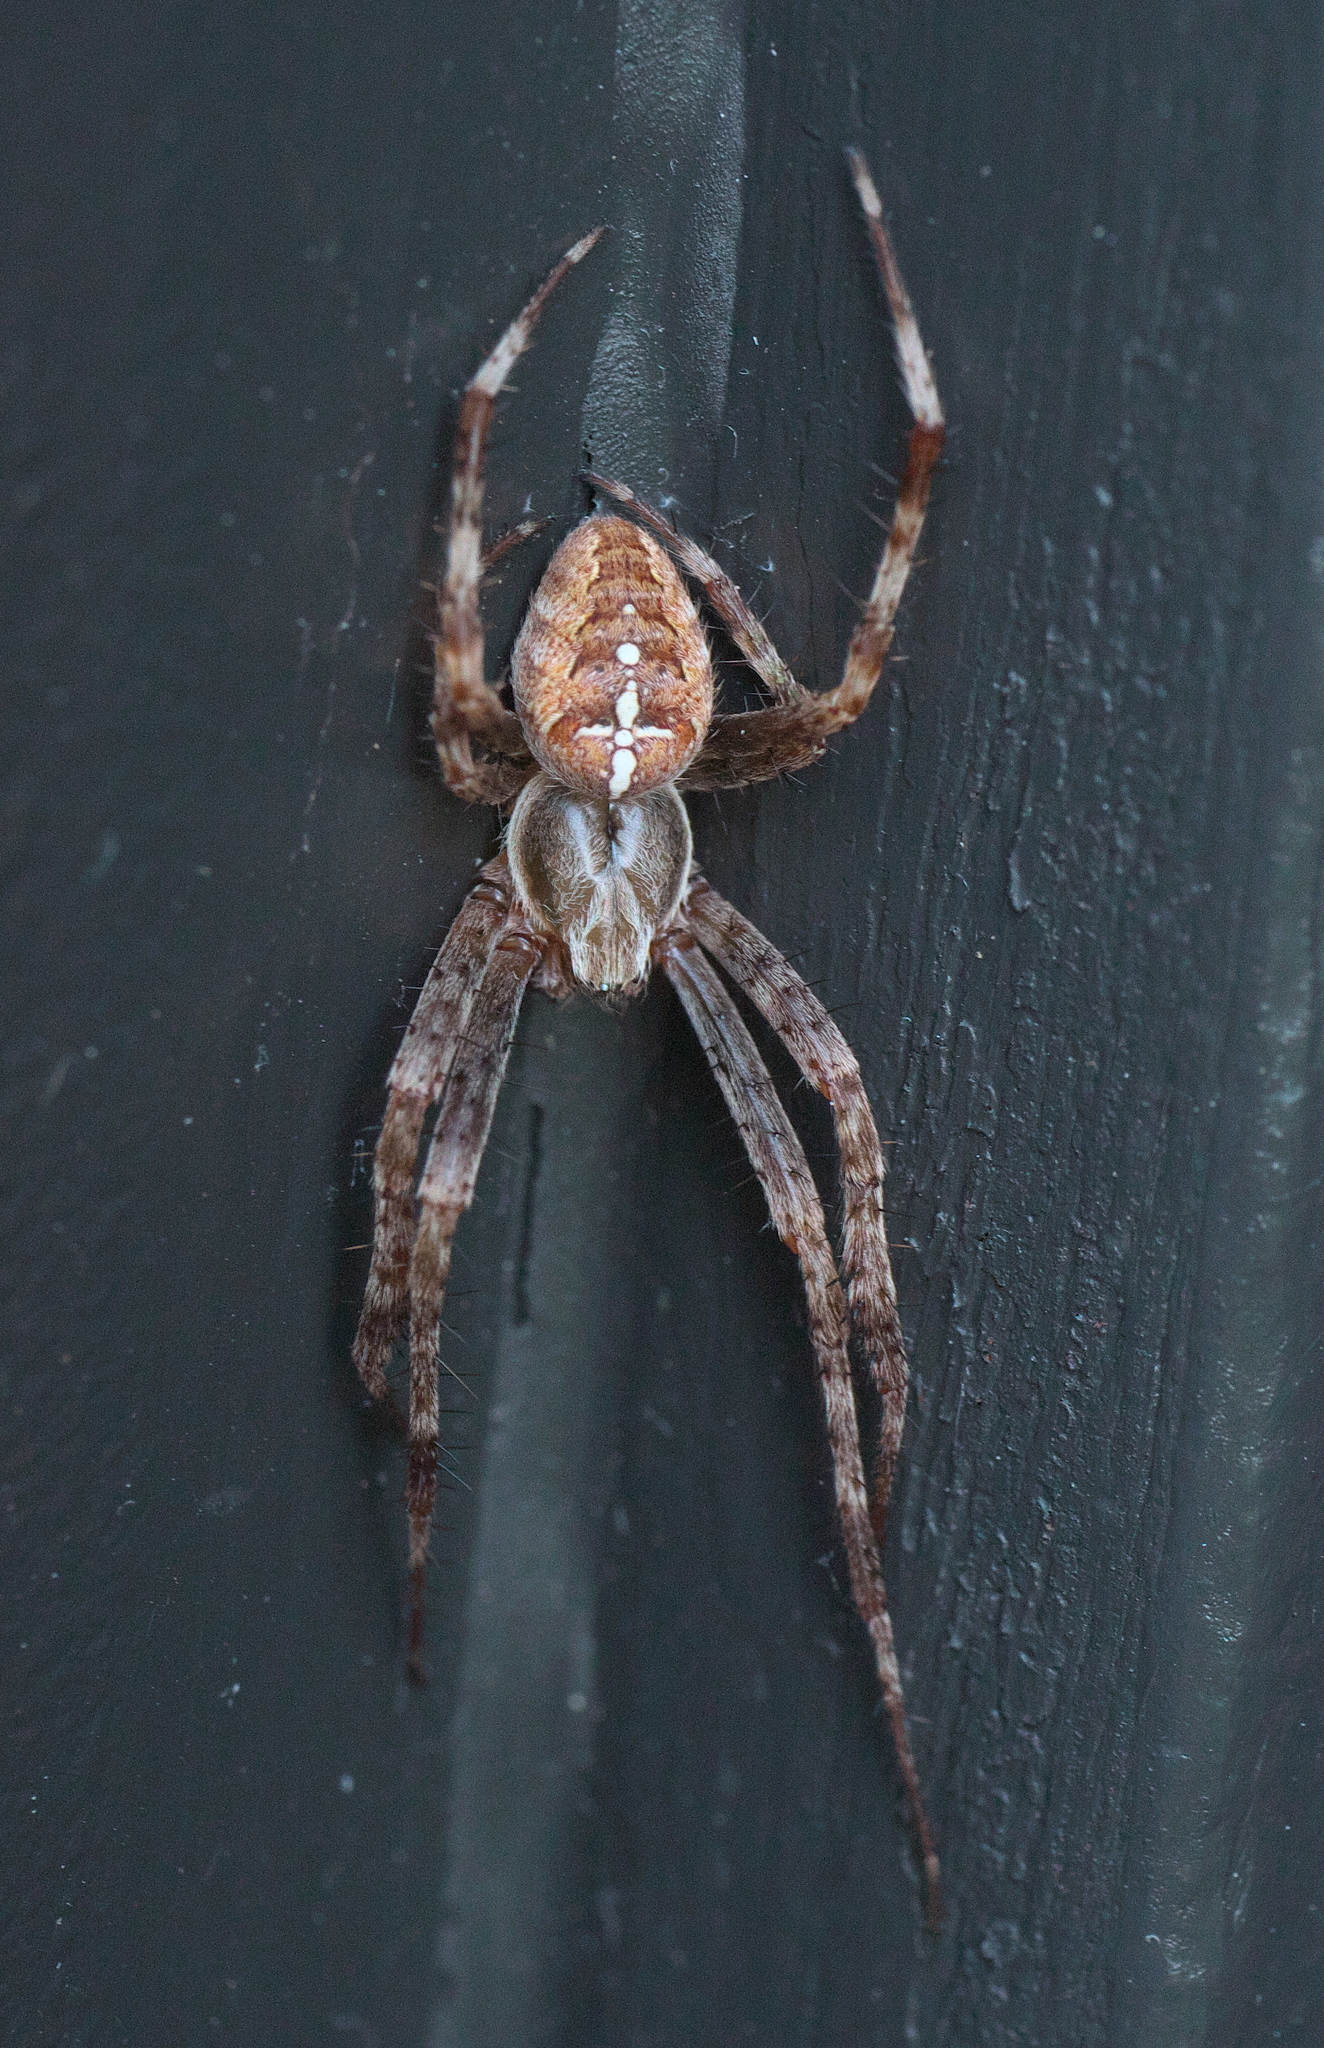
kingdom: Animalia
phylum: Arthropoda
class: Arachnida
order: Araneae
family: Araneidae
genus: Araneus
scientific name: Araneus diadematus
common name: Cross orbweaver
